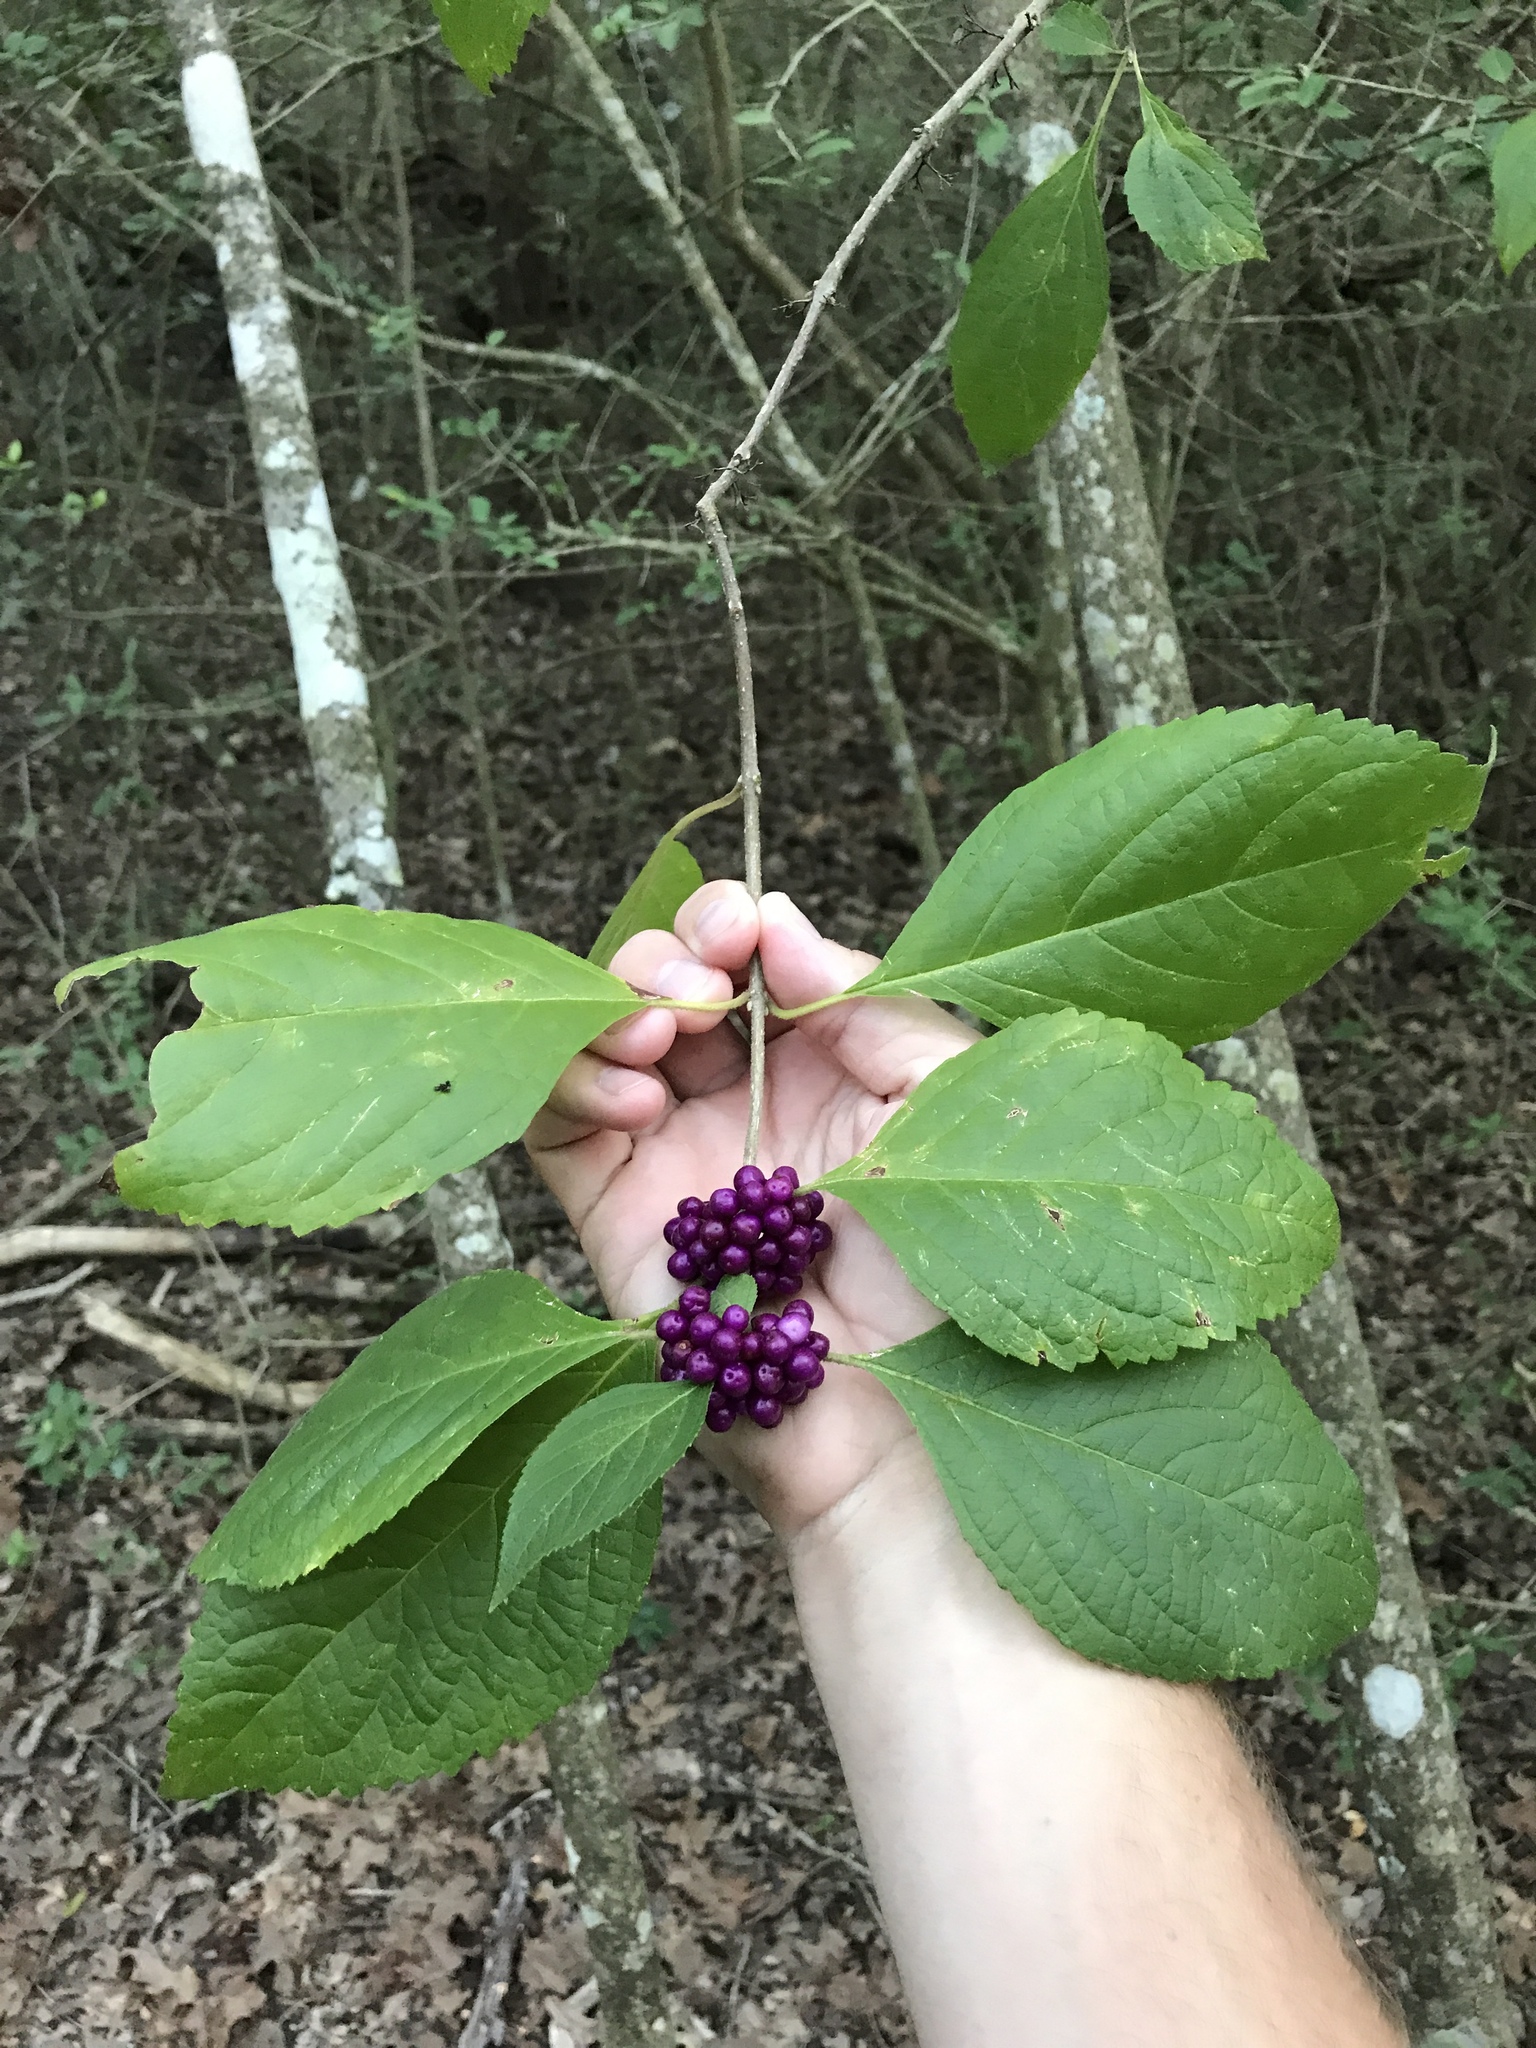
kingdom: Plantae
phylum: Tracheophyta
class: Magnoliopsida
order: Lamiales
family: Lamiaceae
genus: Callicarpa
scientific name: Callicarpa americana
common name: American beautyberry
